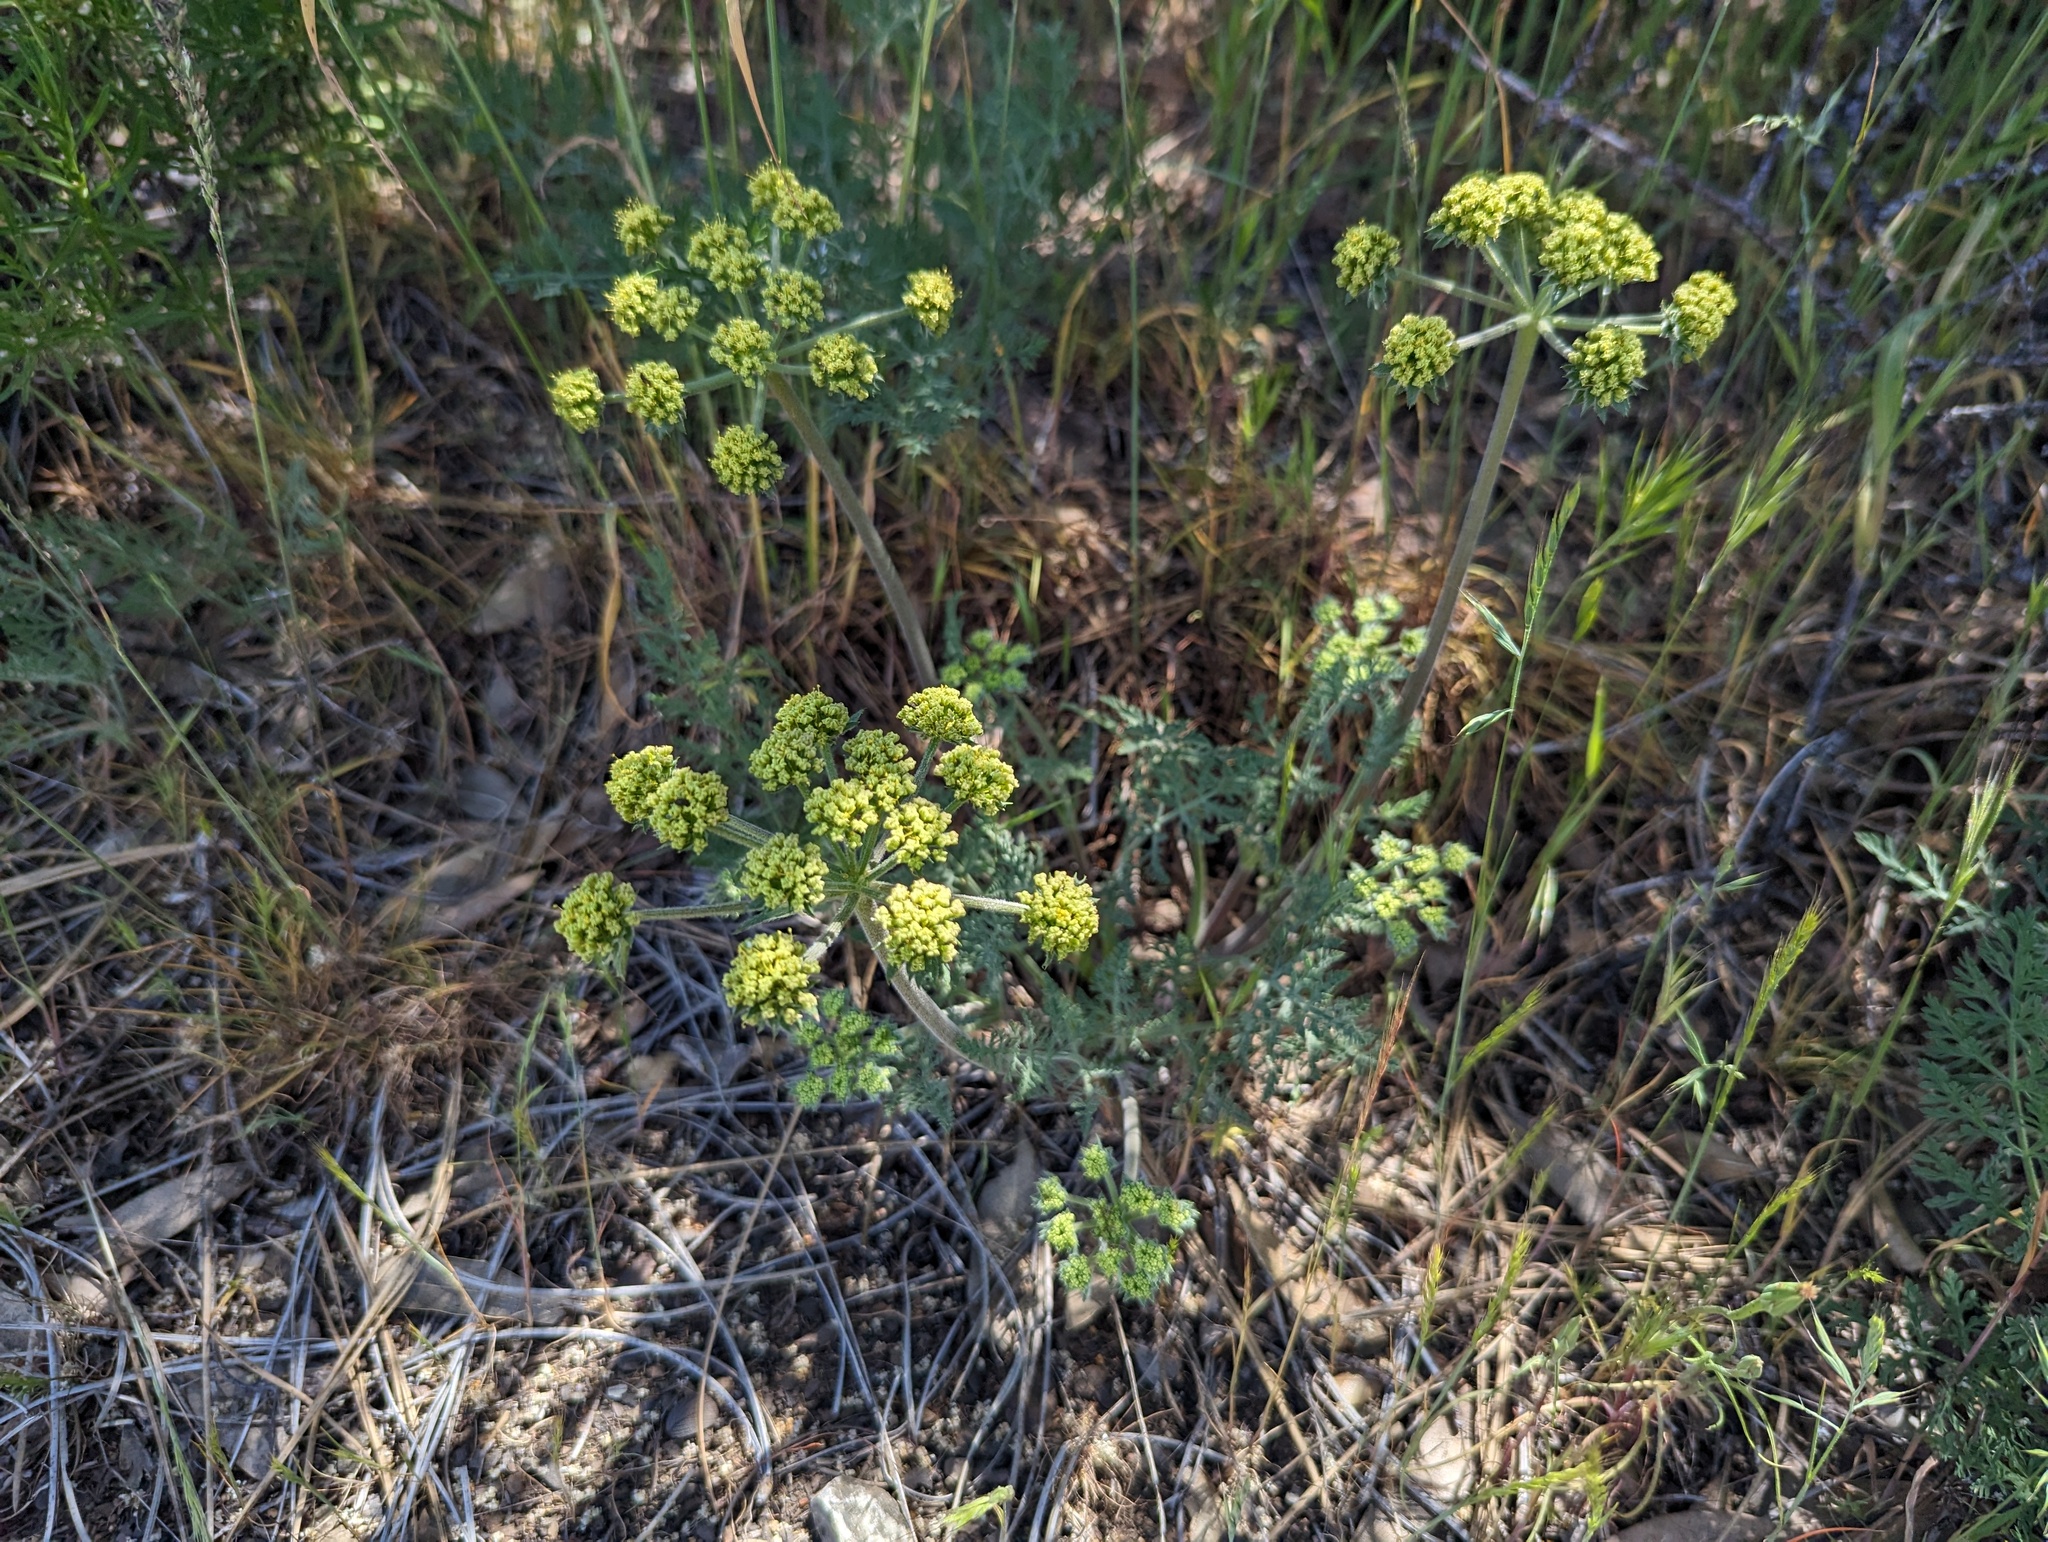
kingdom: Plantae
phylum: Tracheophyta
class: Magnoliopsida
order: Apiales
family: Apiaceae
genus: Lomatium
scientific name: Lomatium macrocarpum
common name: Big-seed biscuitroot
